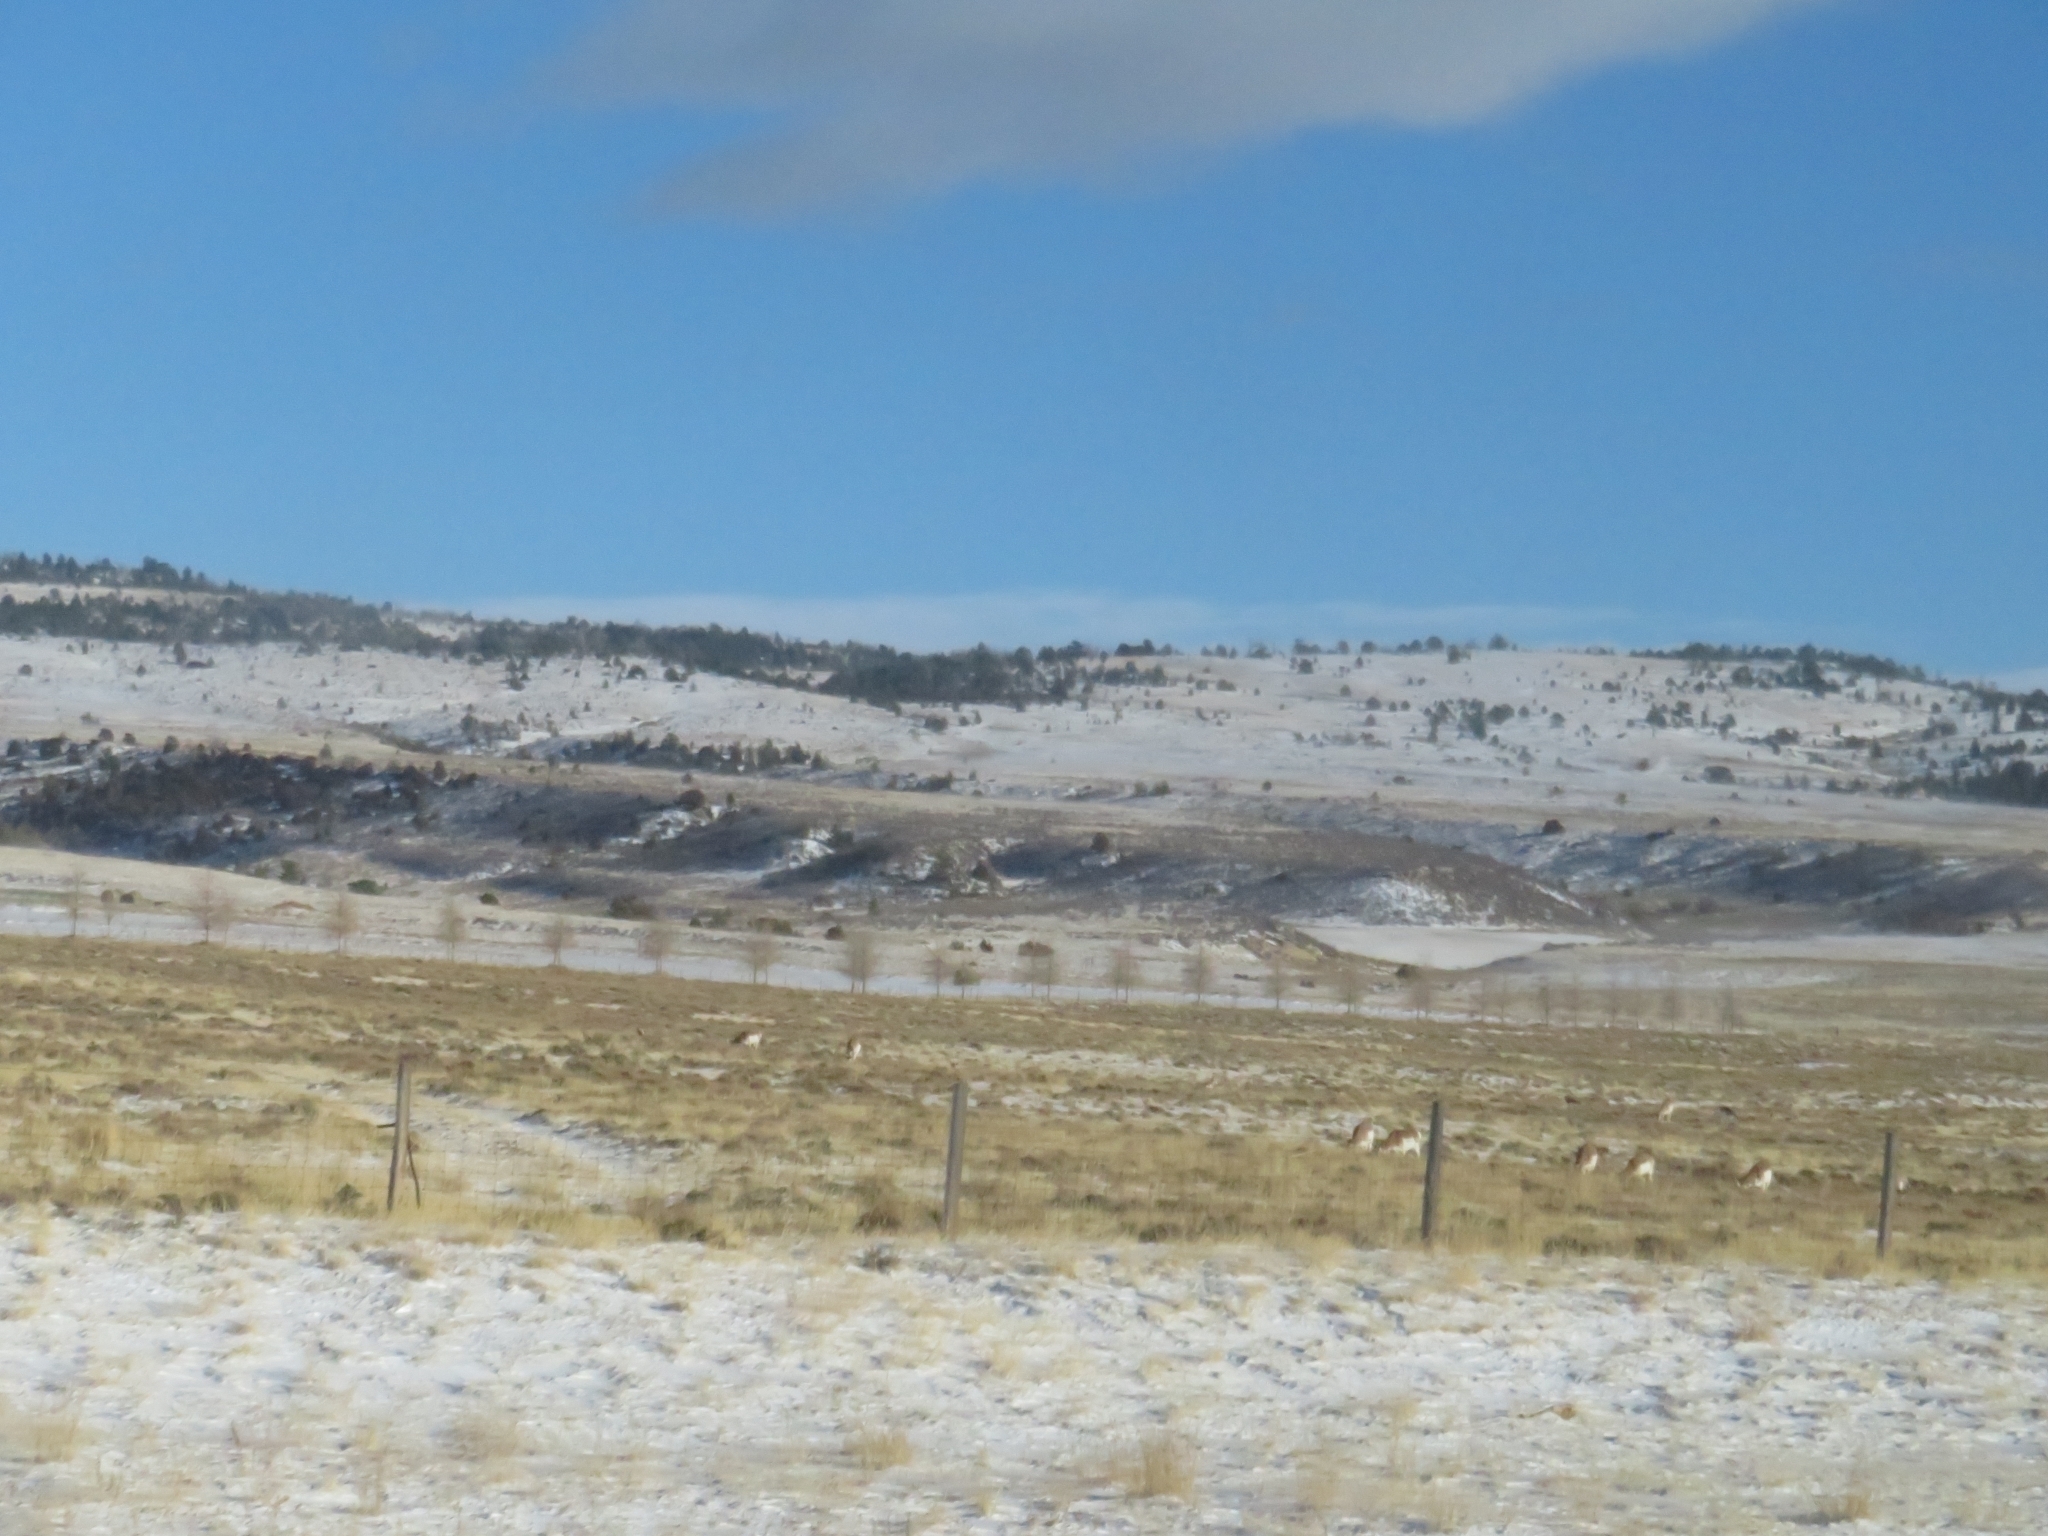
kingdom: Animalia
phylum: Chordata
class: Mammalia
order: Artiodactyla
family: Antilocapridae
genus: Antilocapra
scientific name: Antilocapra americana
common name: Pronghorn
